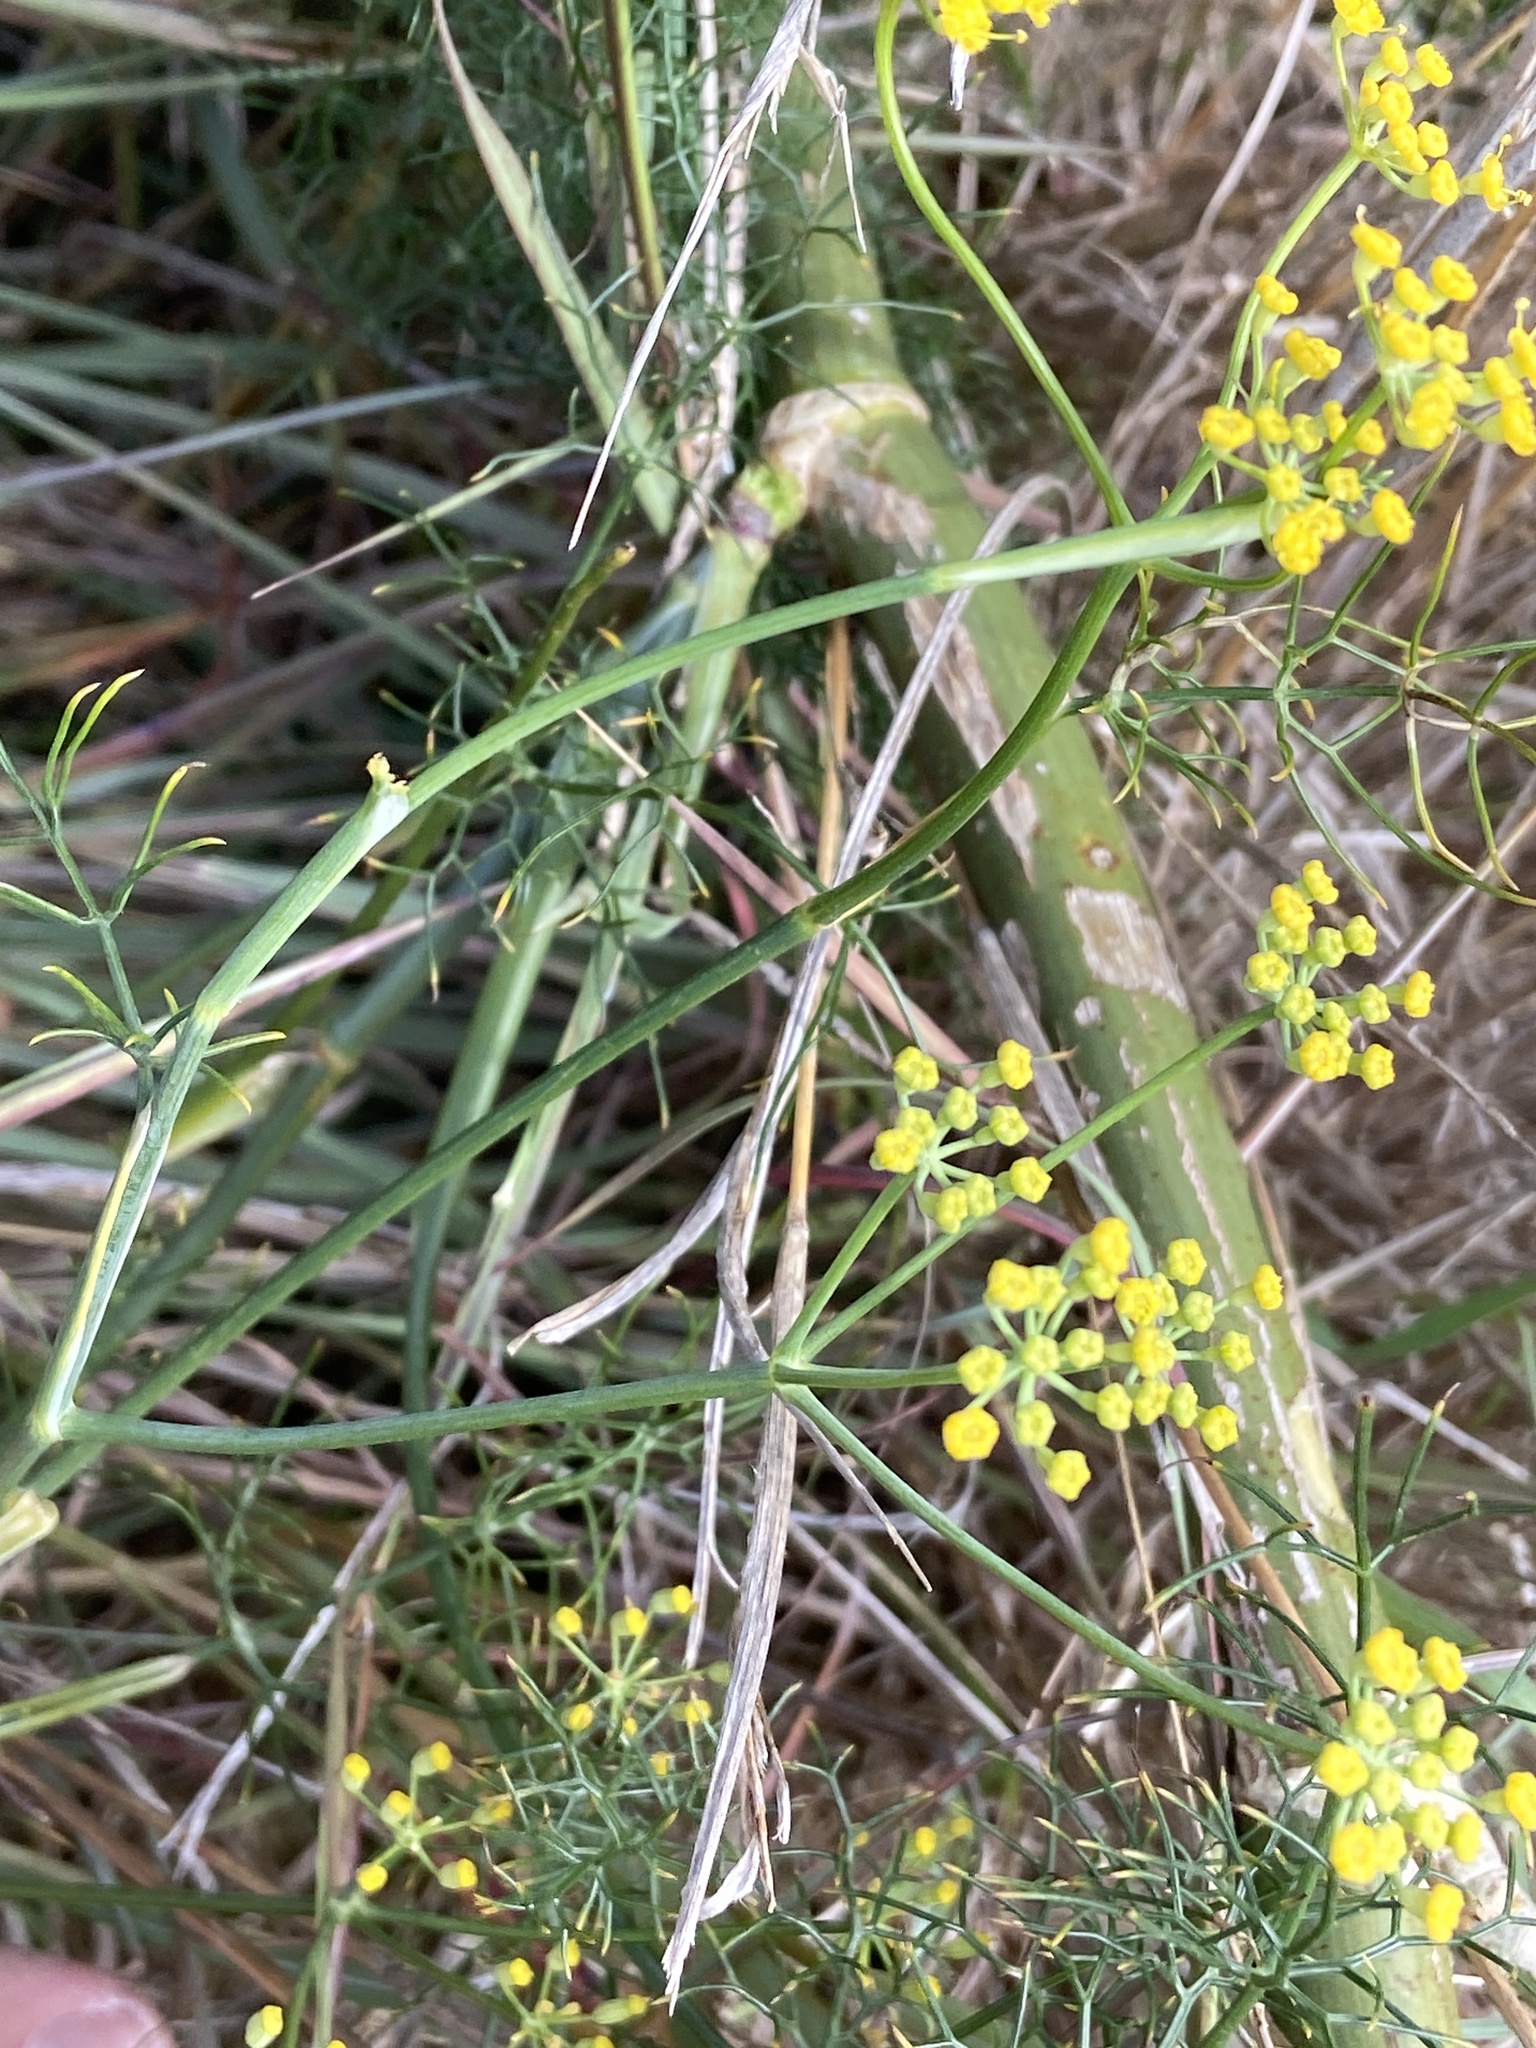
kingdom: Plantae
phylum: Tracheophyta
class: Magnoliopsida
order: Apiales
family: Apiaceae
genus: Foeniculum
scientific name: Foeniculum vulgare
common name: Fennel
